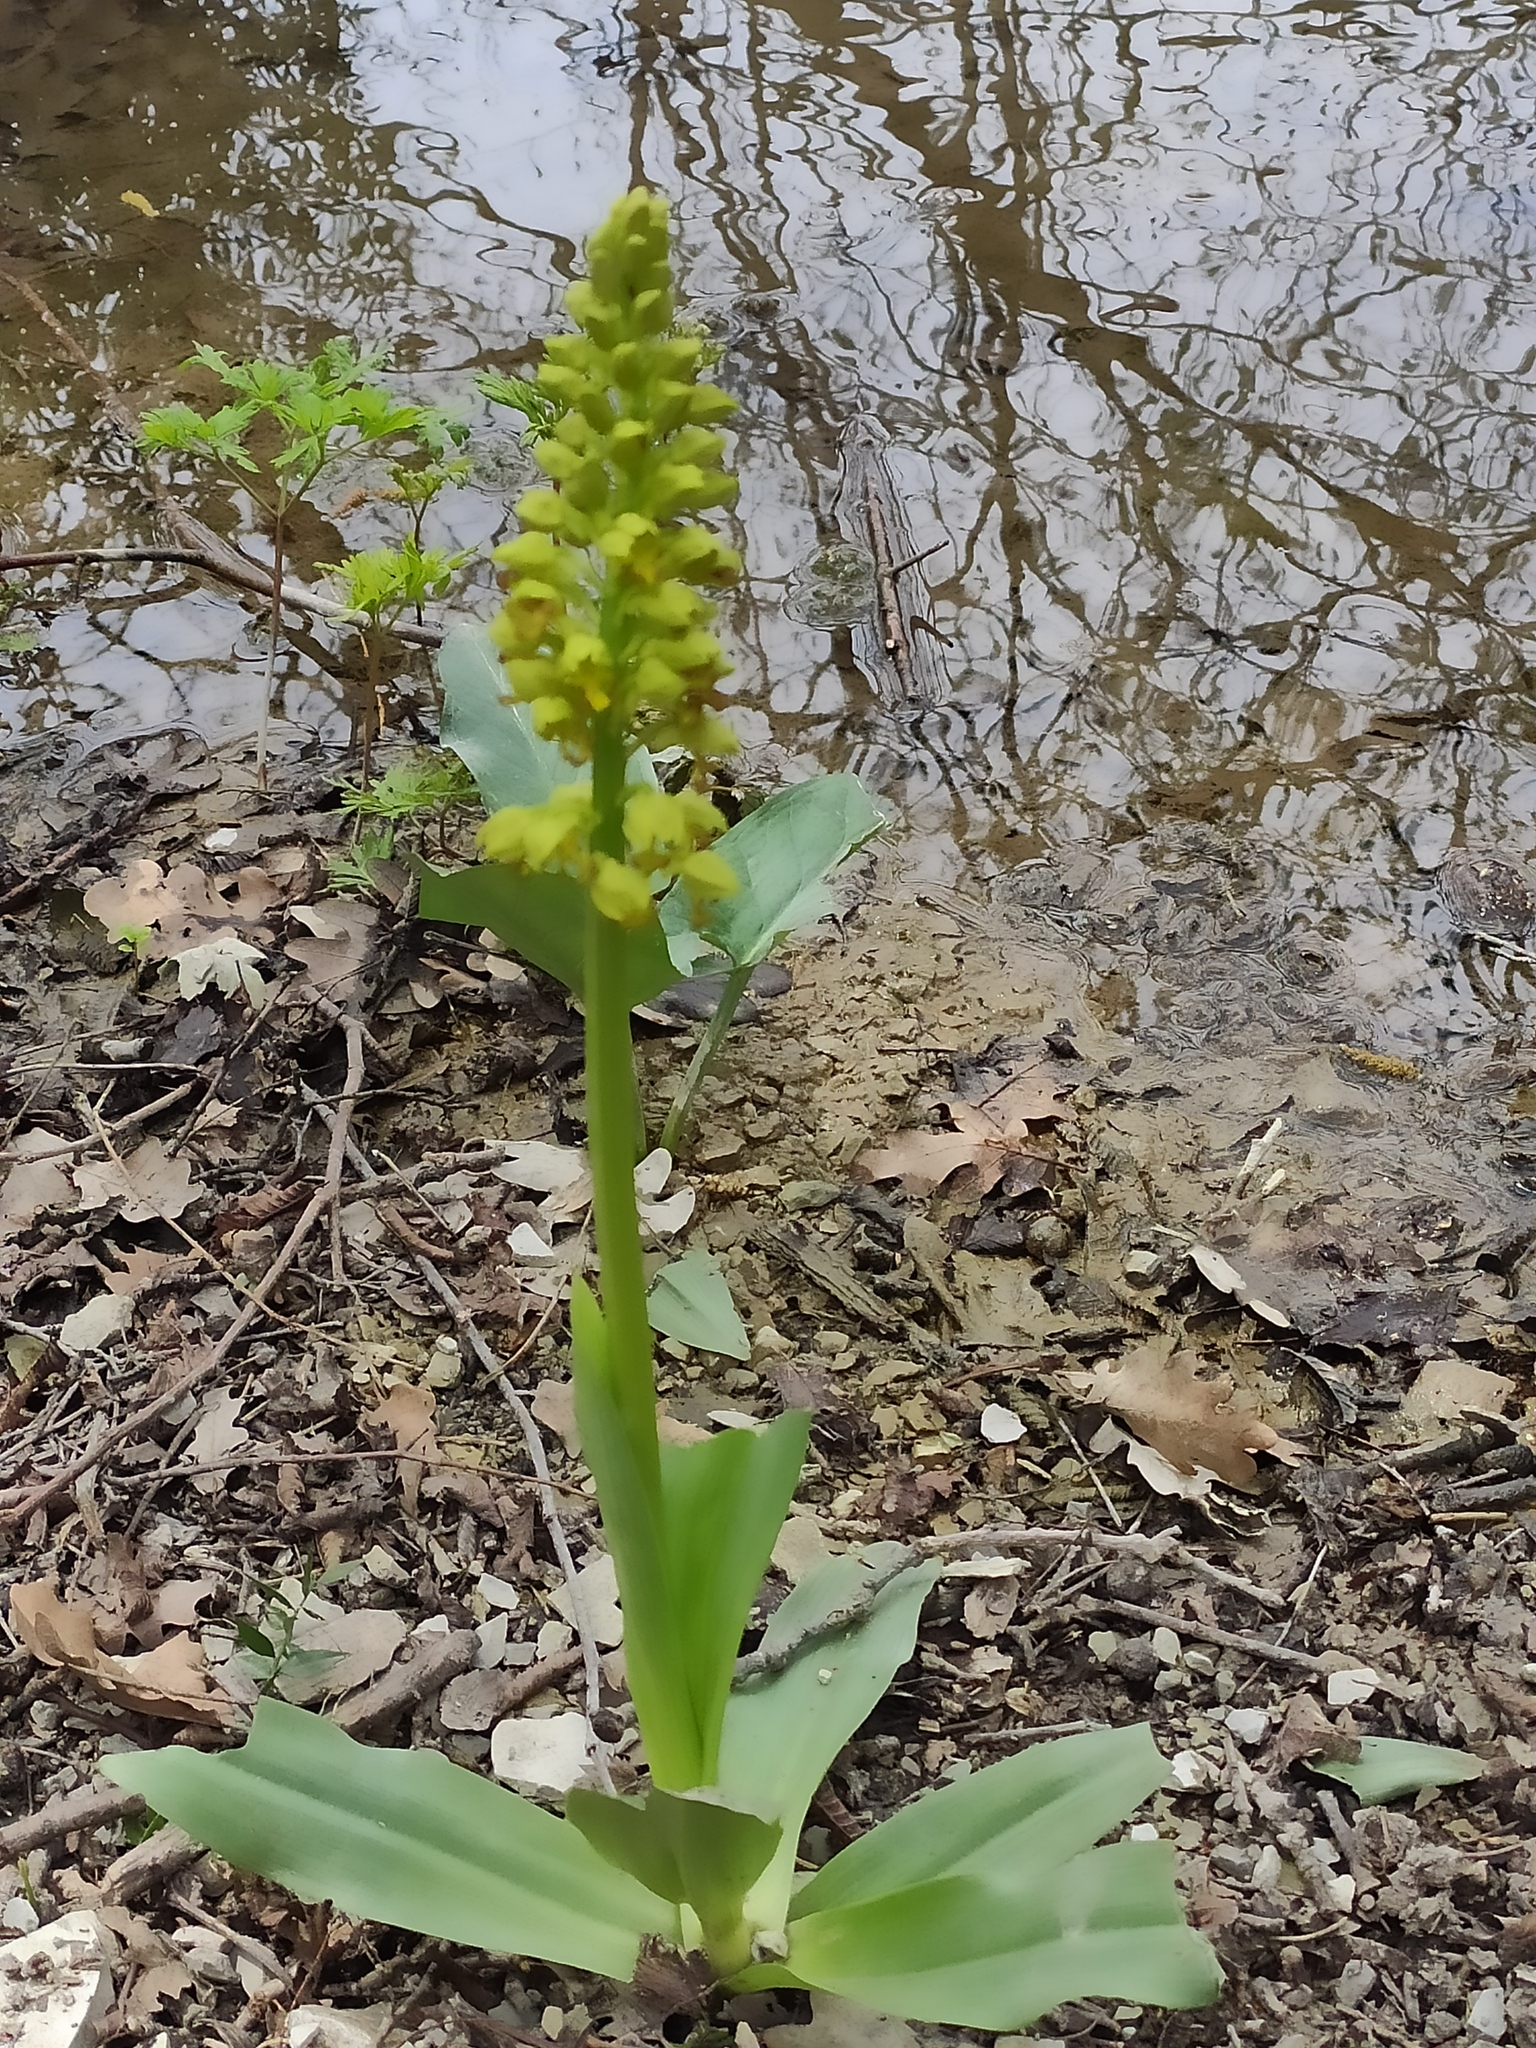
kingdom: Plantae
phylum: Tracheophyta
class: Liliopsida
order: Asparagales
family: Orchidaceae
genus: Orchis
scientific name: Orchis punctulata
